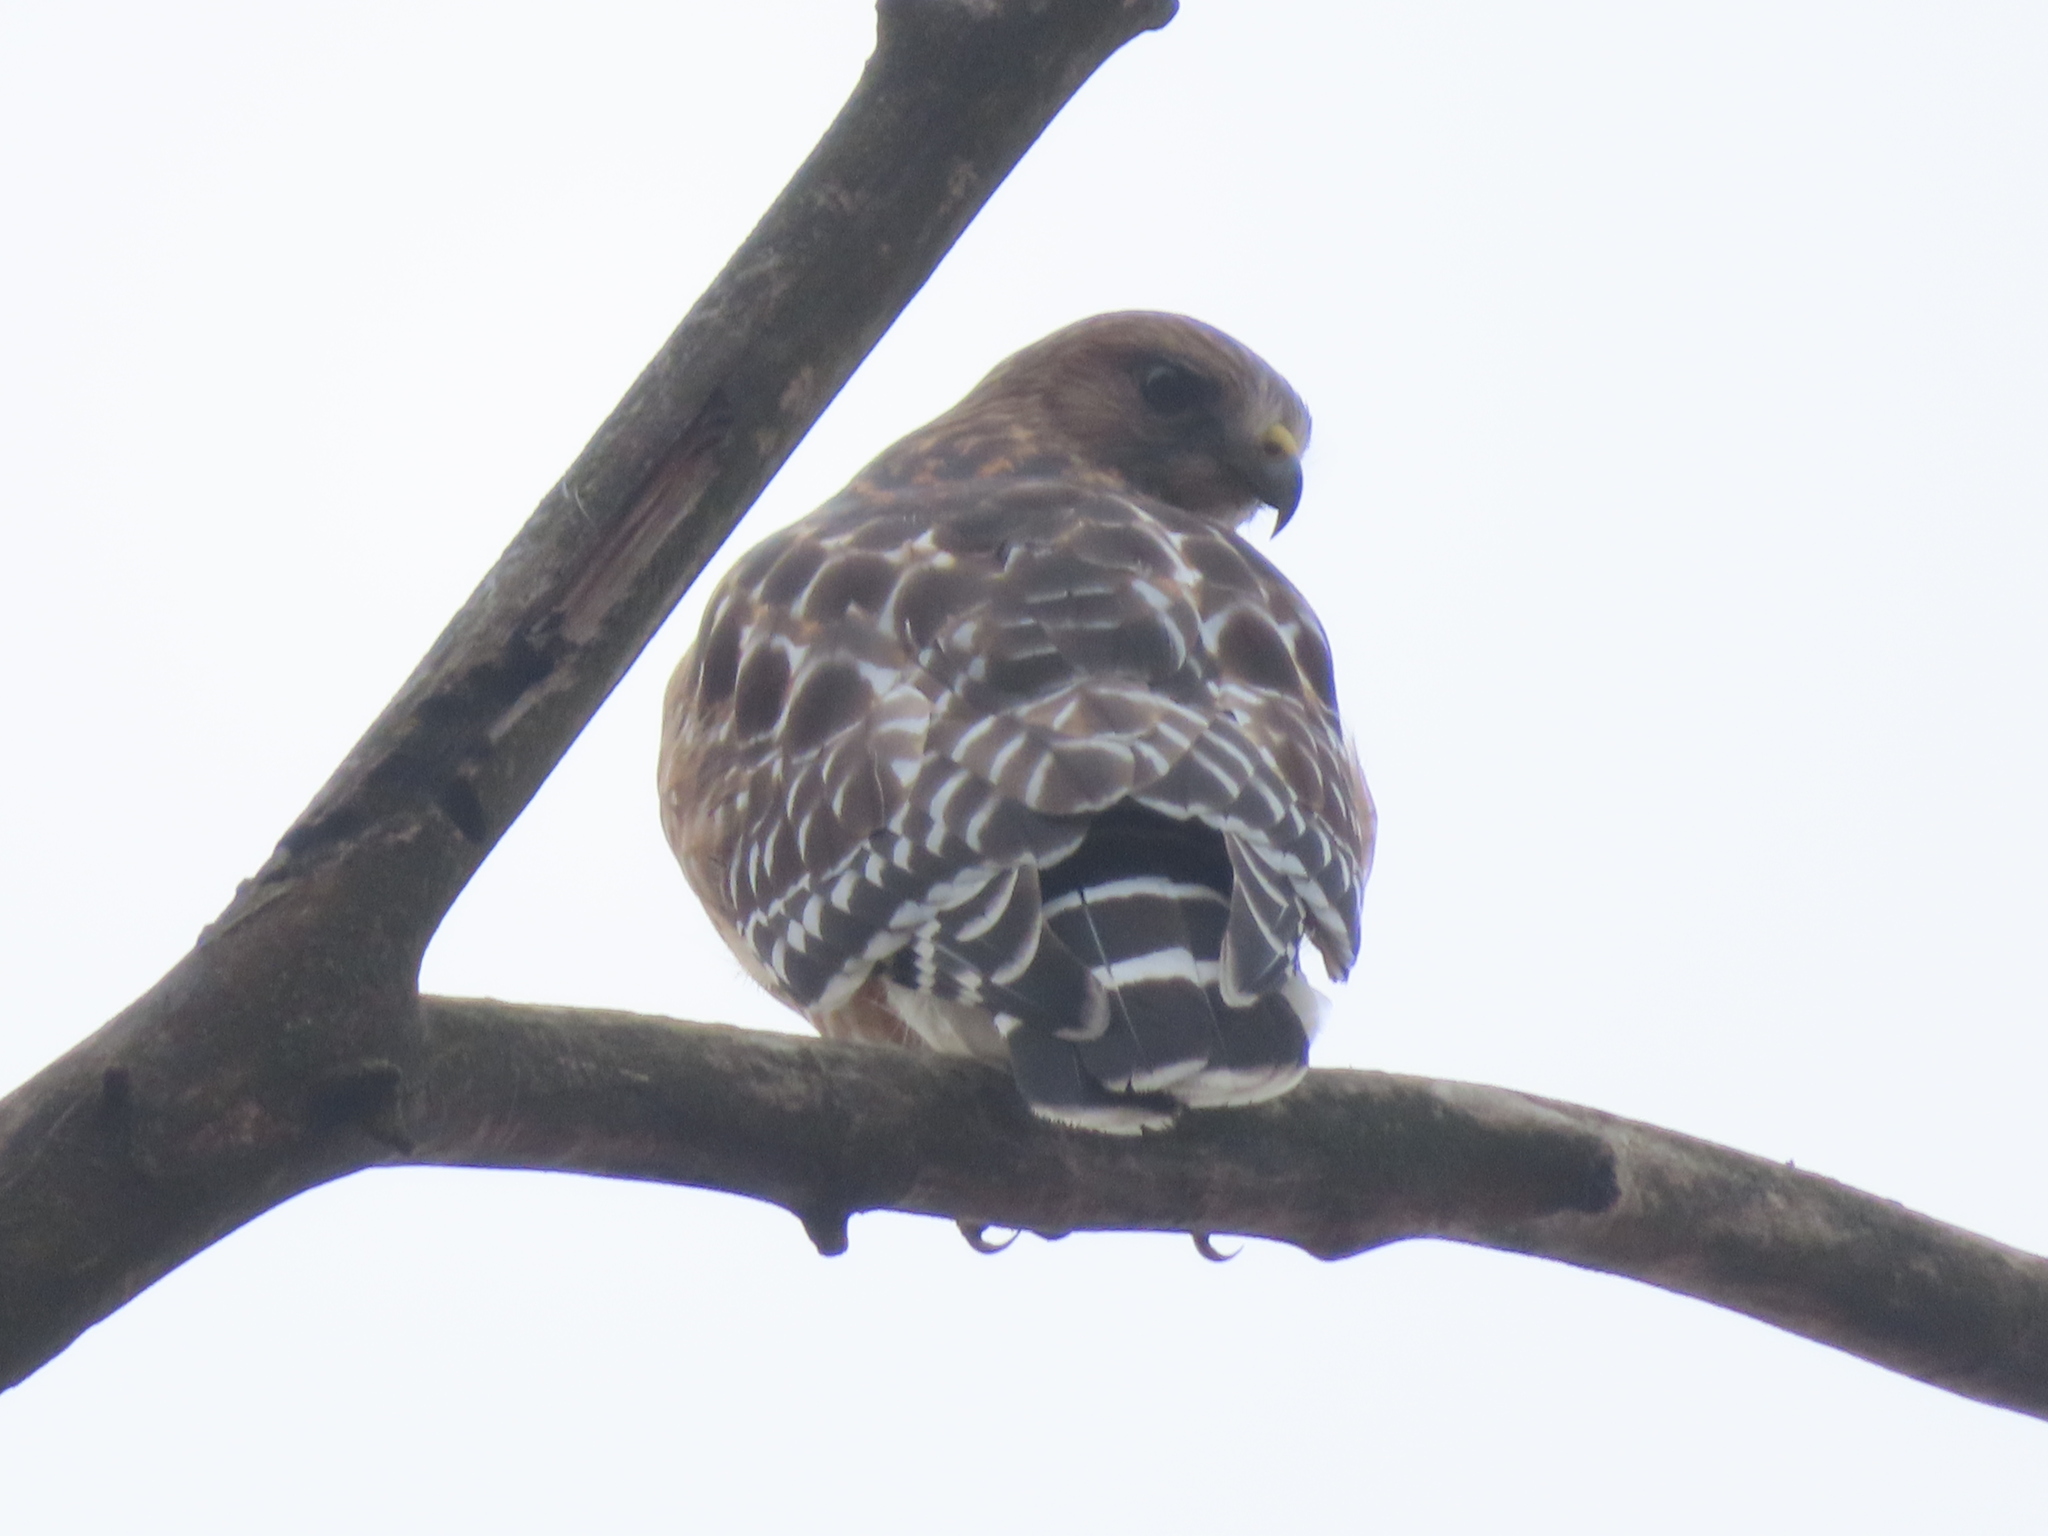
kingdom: Animalia
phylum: Chordata
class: Aves
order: Accipitriformes
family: Accipitridae
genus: Buteo
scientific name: Buteo lineatus
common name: Red-shouldered hawk
